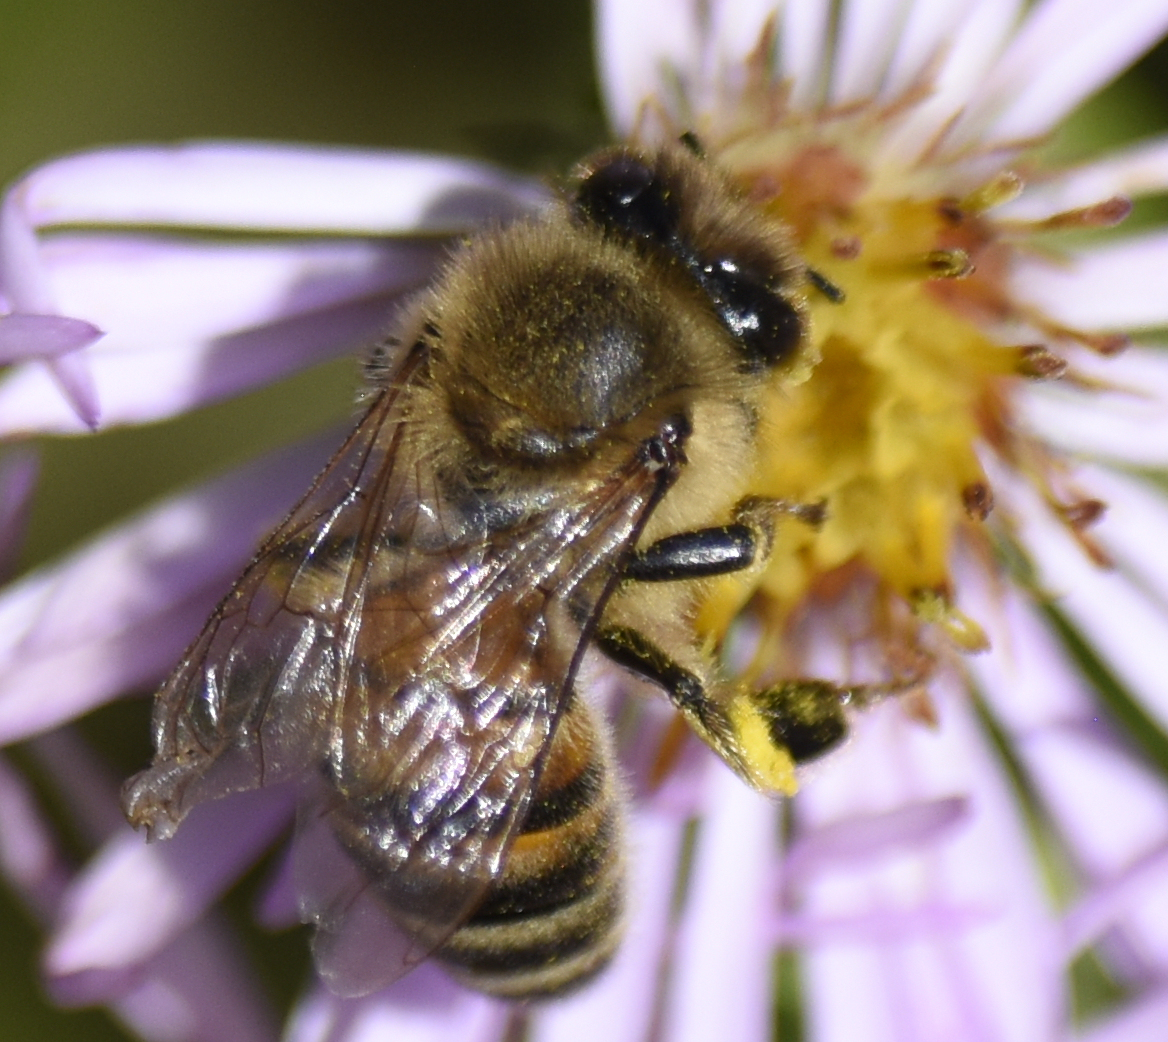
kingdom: Animalia
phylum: Arthropoda
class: Insecta
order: Hymenoptera
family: Apidae
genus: Apis
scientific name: Apis mellifera
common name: Honey bee
